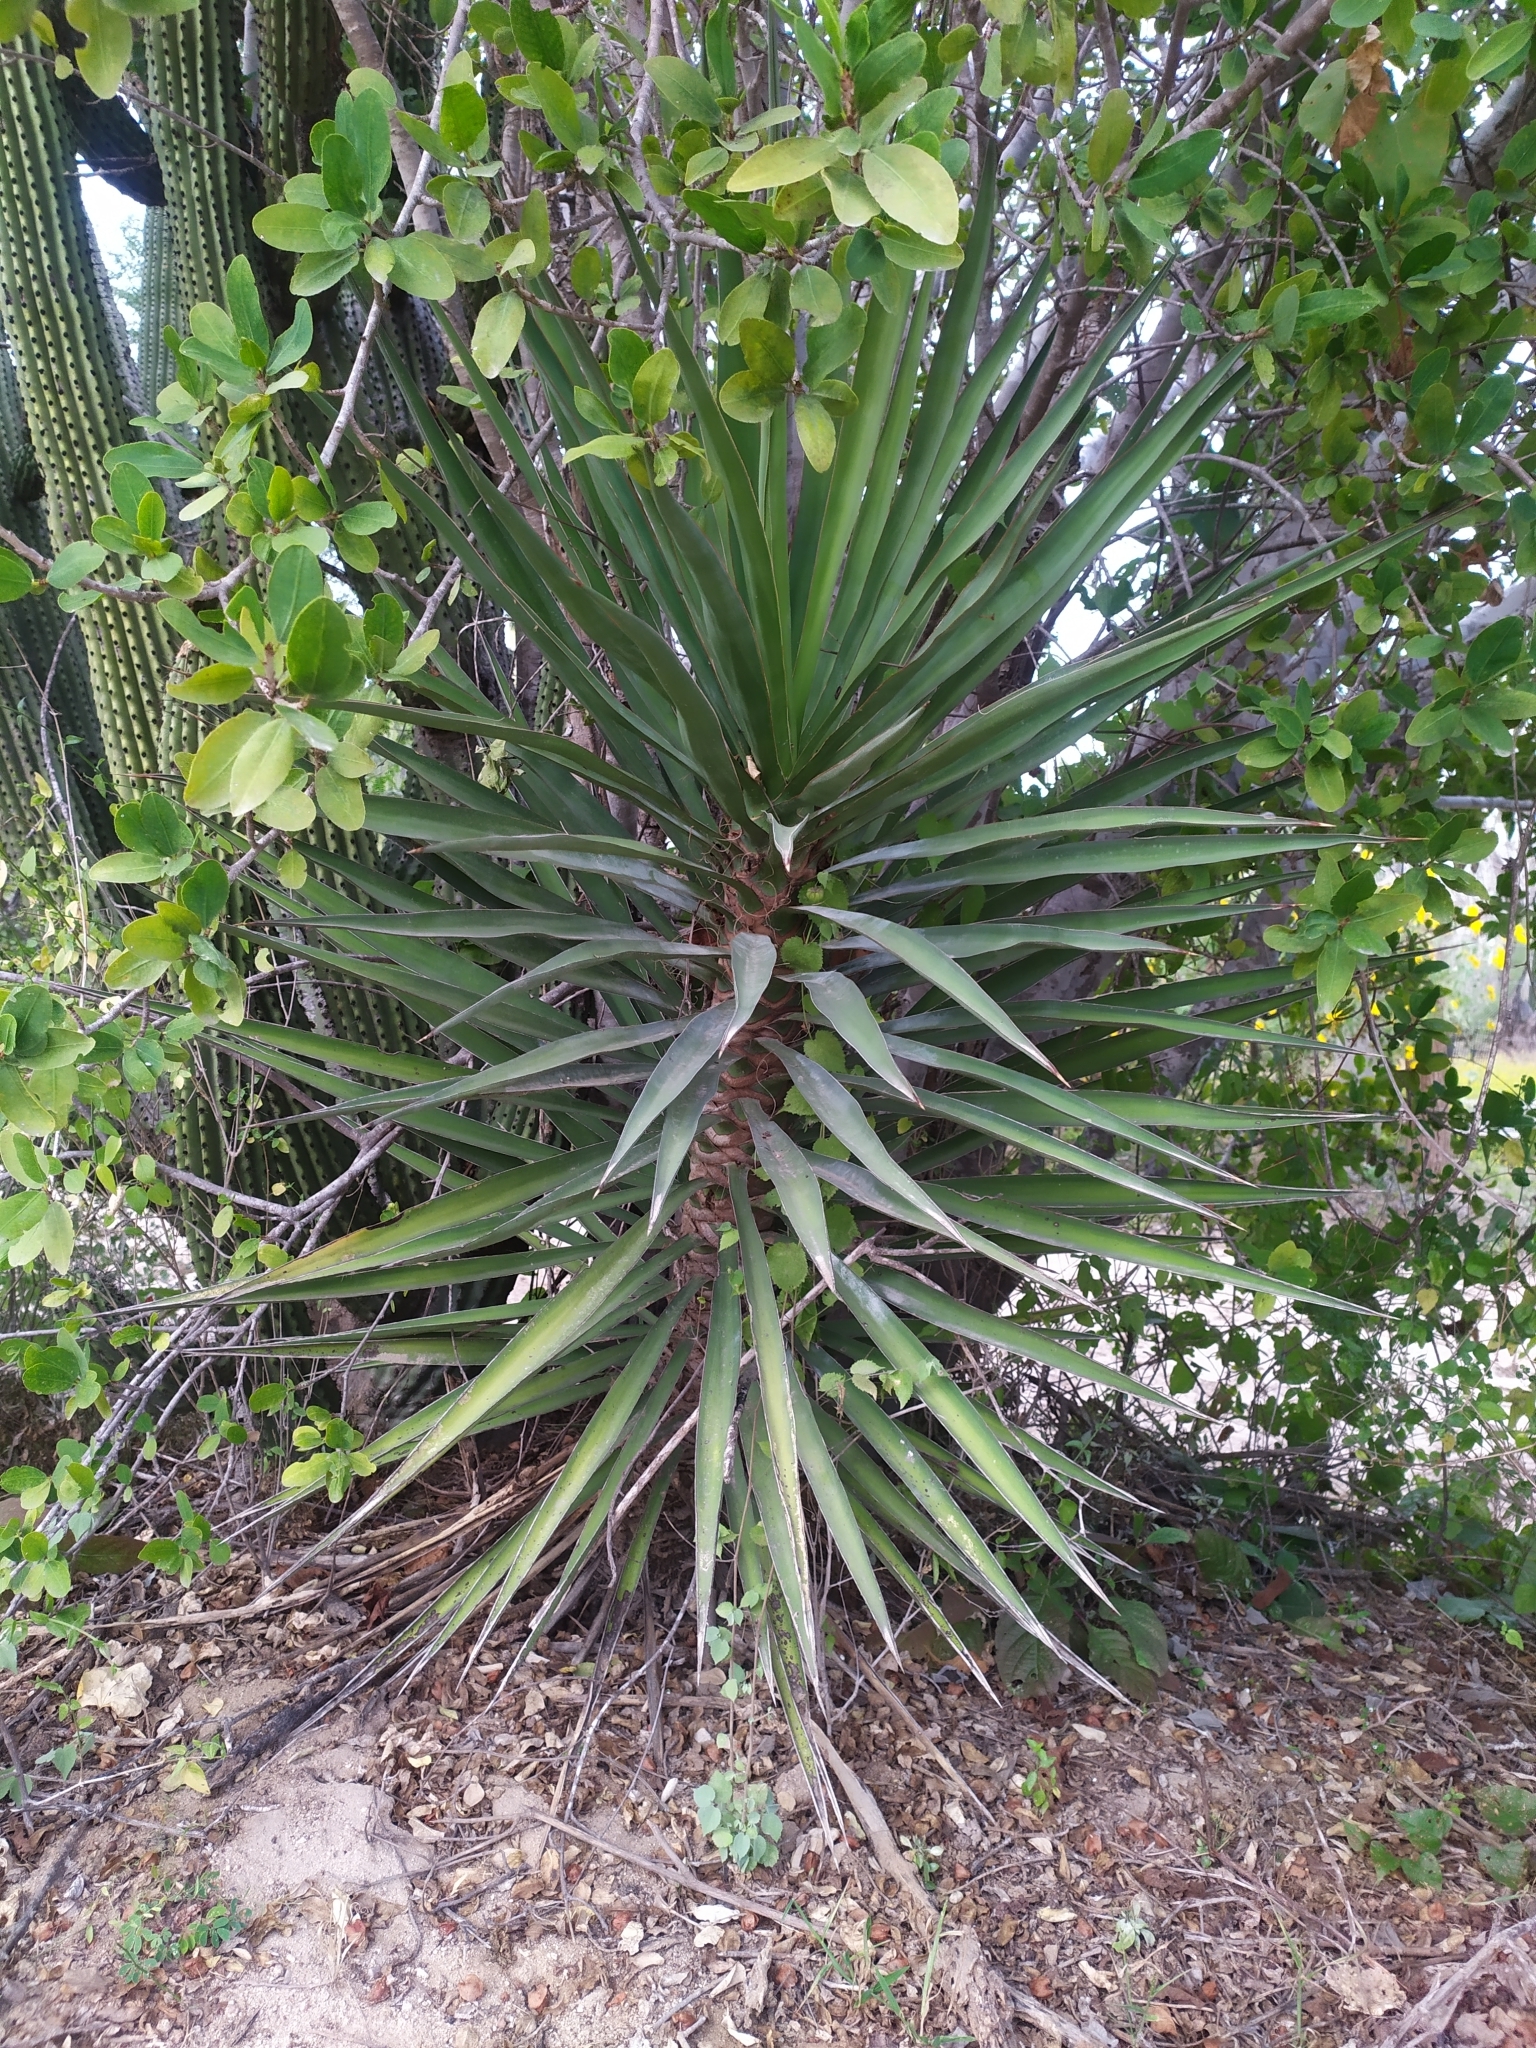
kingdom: Plantae
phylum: Tracheophyta
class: Liliopsida
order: Asparagales
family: Asparagaceae
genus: Yucca
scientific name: Yucca capensis
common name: Cape region yucca
